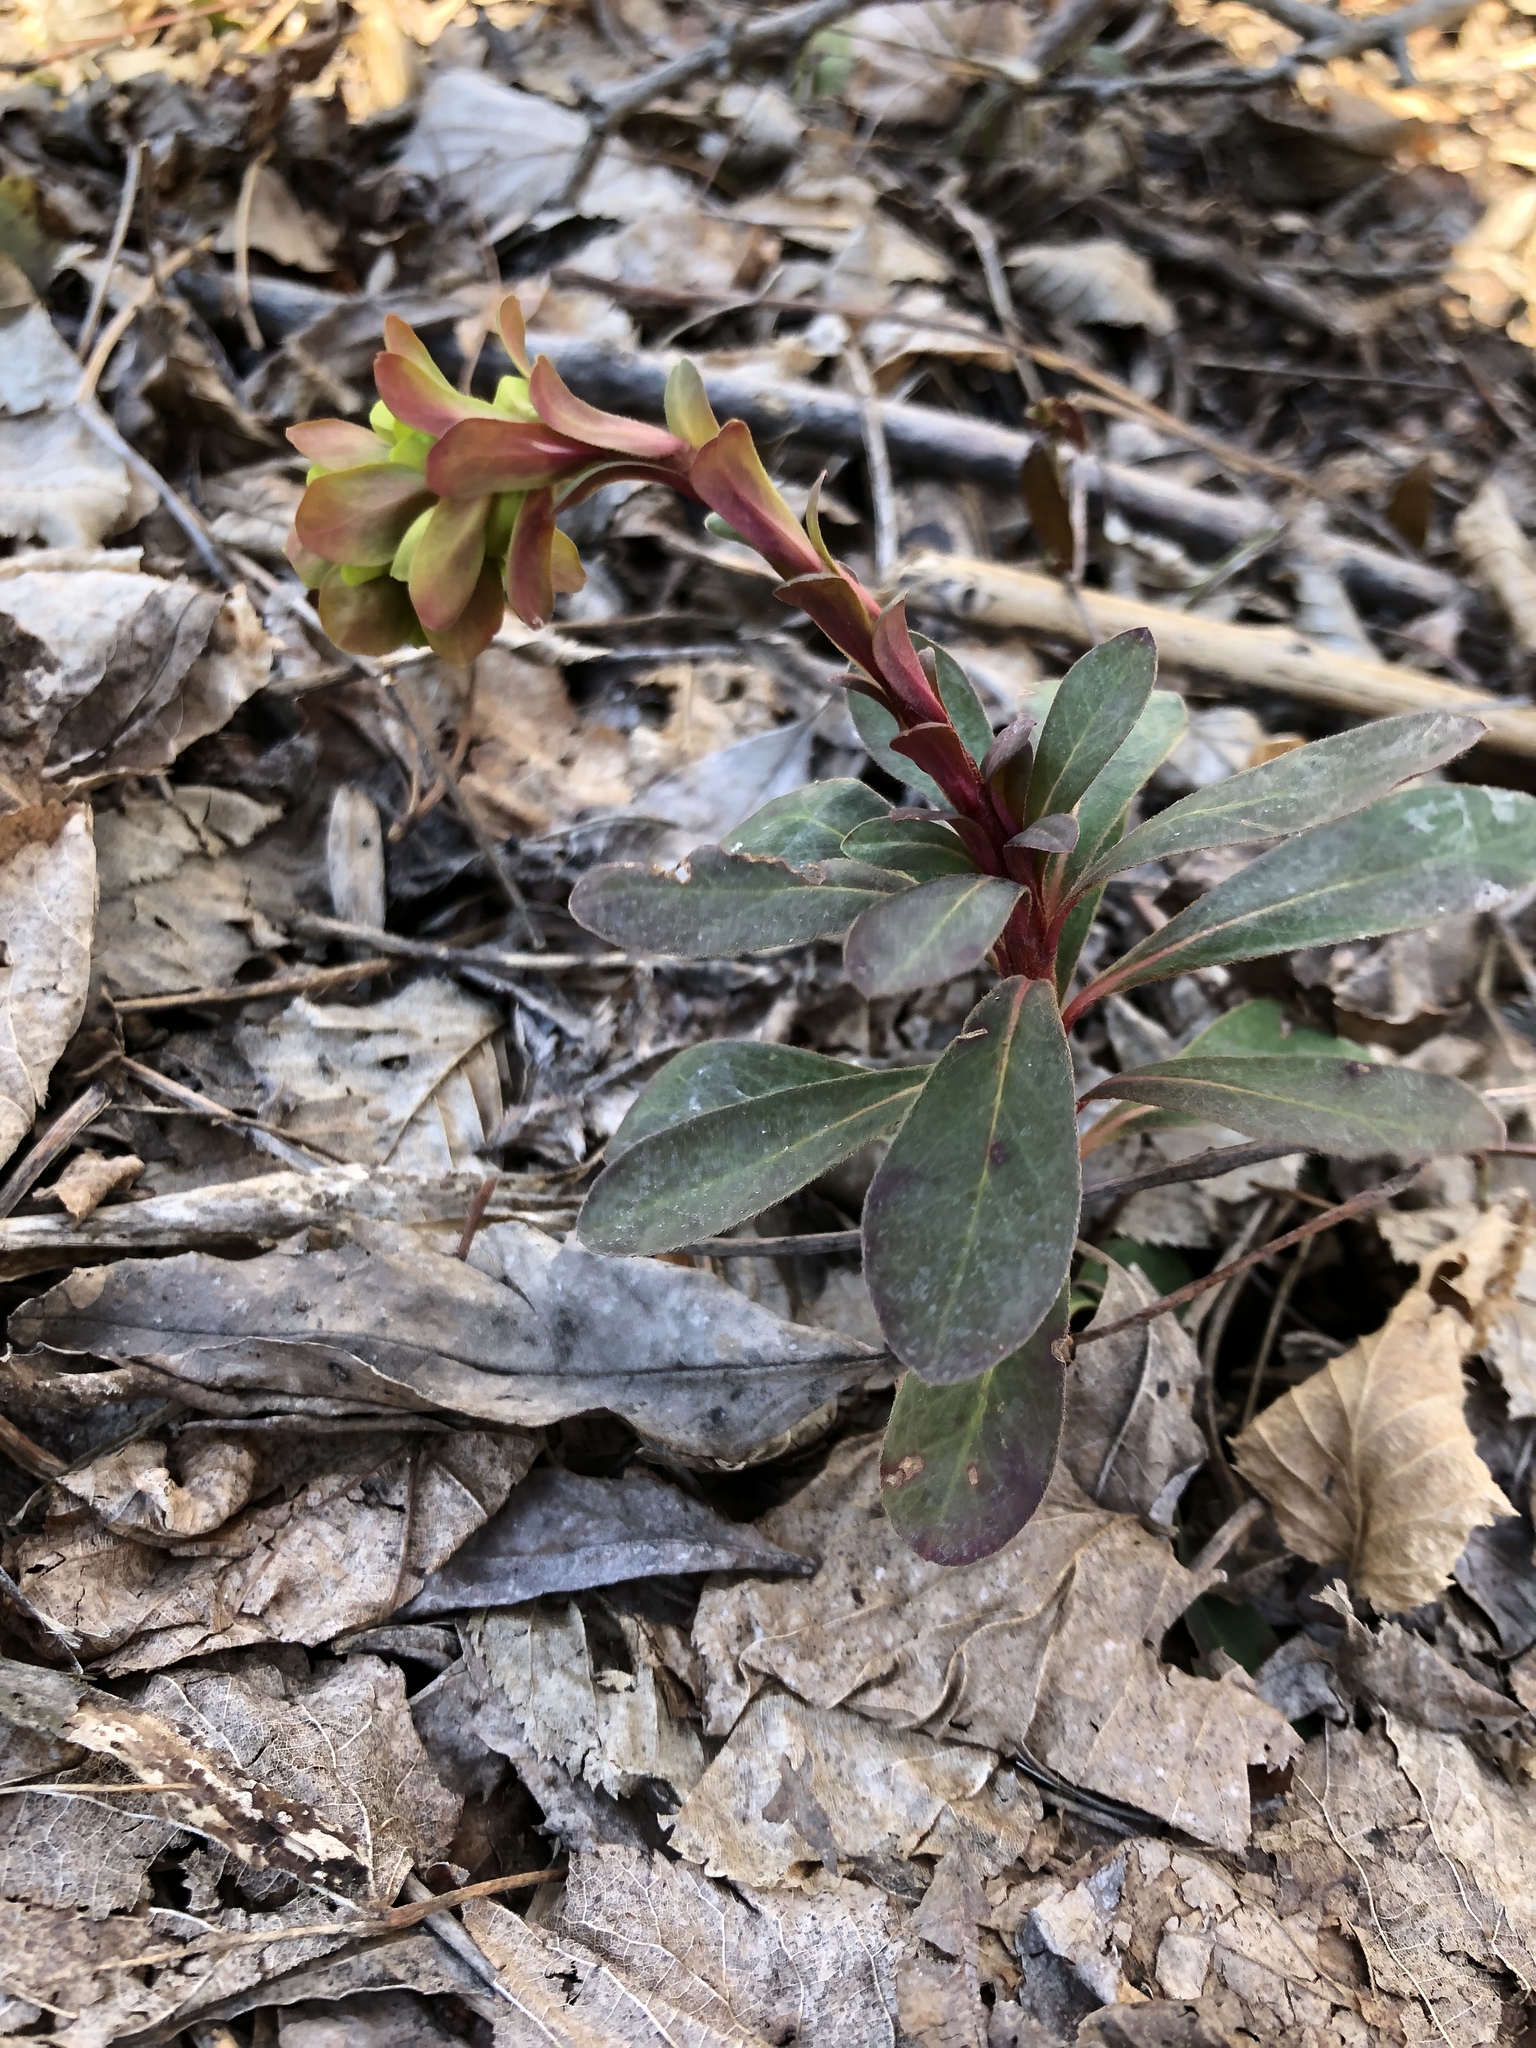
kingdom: Plantae
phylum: Tracheophyta
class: Magnoliopsida
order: Malpighiales
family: Euphorbiaceae
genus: Euphorbia
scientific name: Euphorbia amygdaloides
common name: Wood spurge
